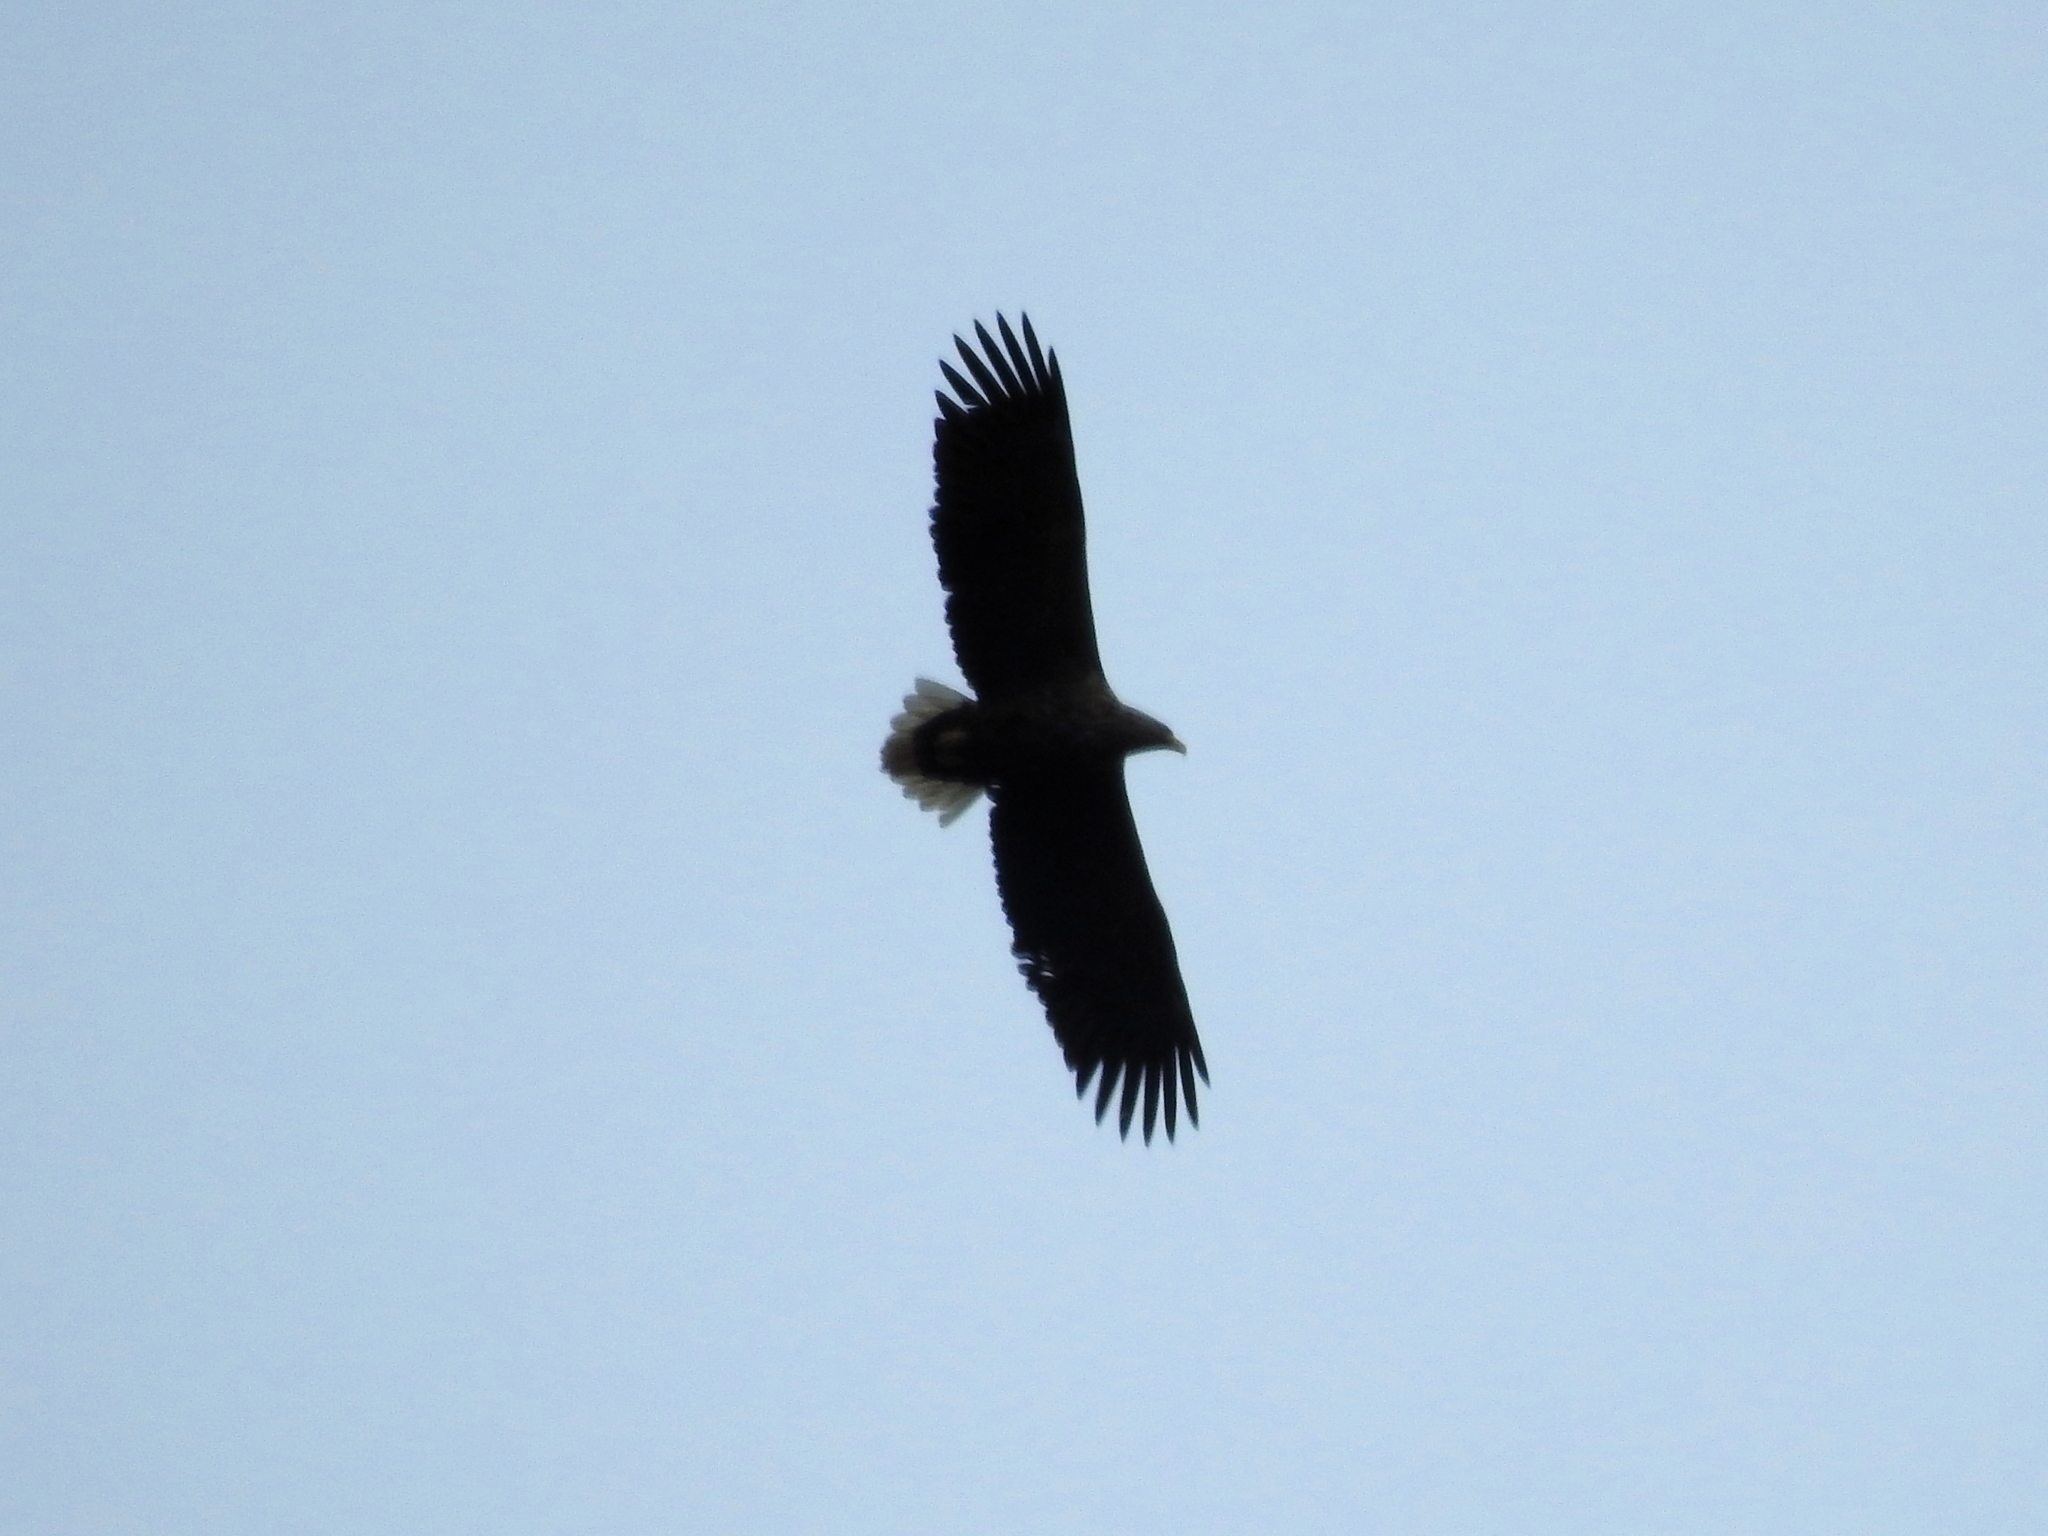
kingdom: Animalia
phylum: Chordata
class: Aves
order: Accipitriformes
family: Accipitridae
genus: Haliaeetus
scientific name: Haliaeetus albicilla
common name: White-tailed eagle
